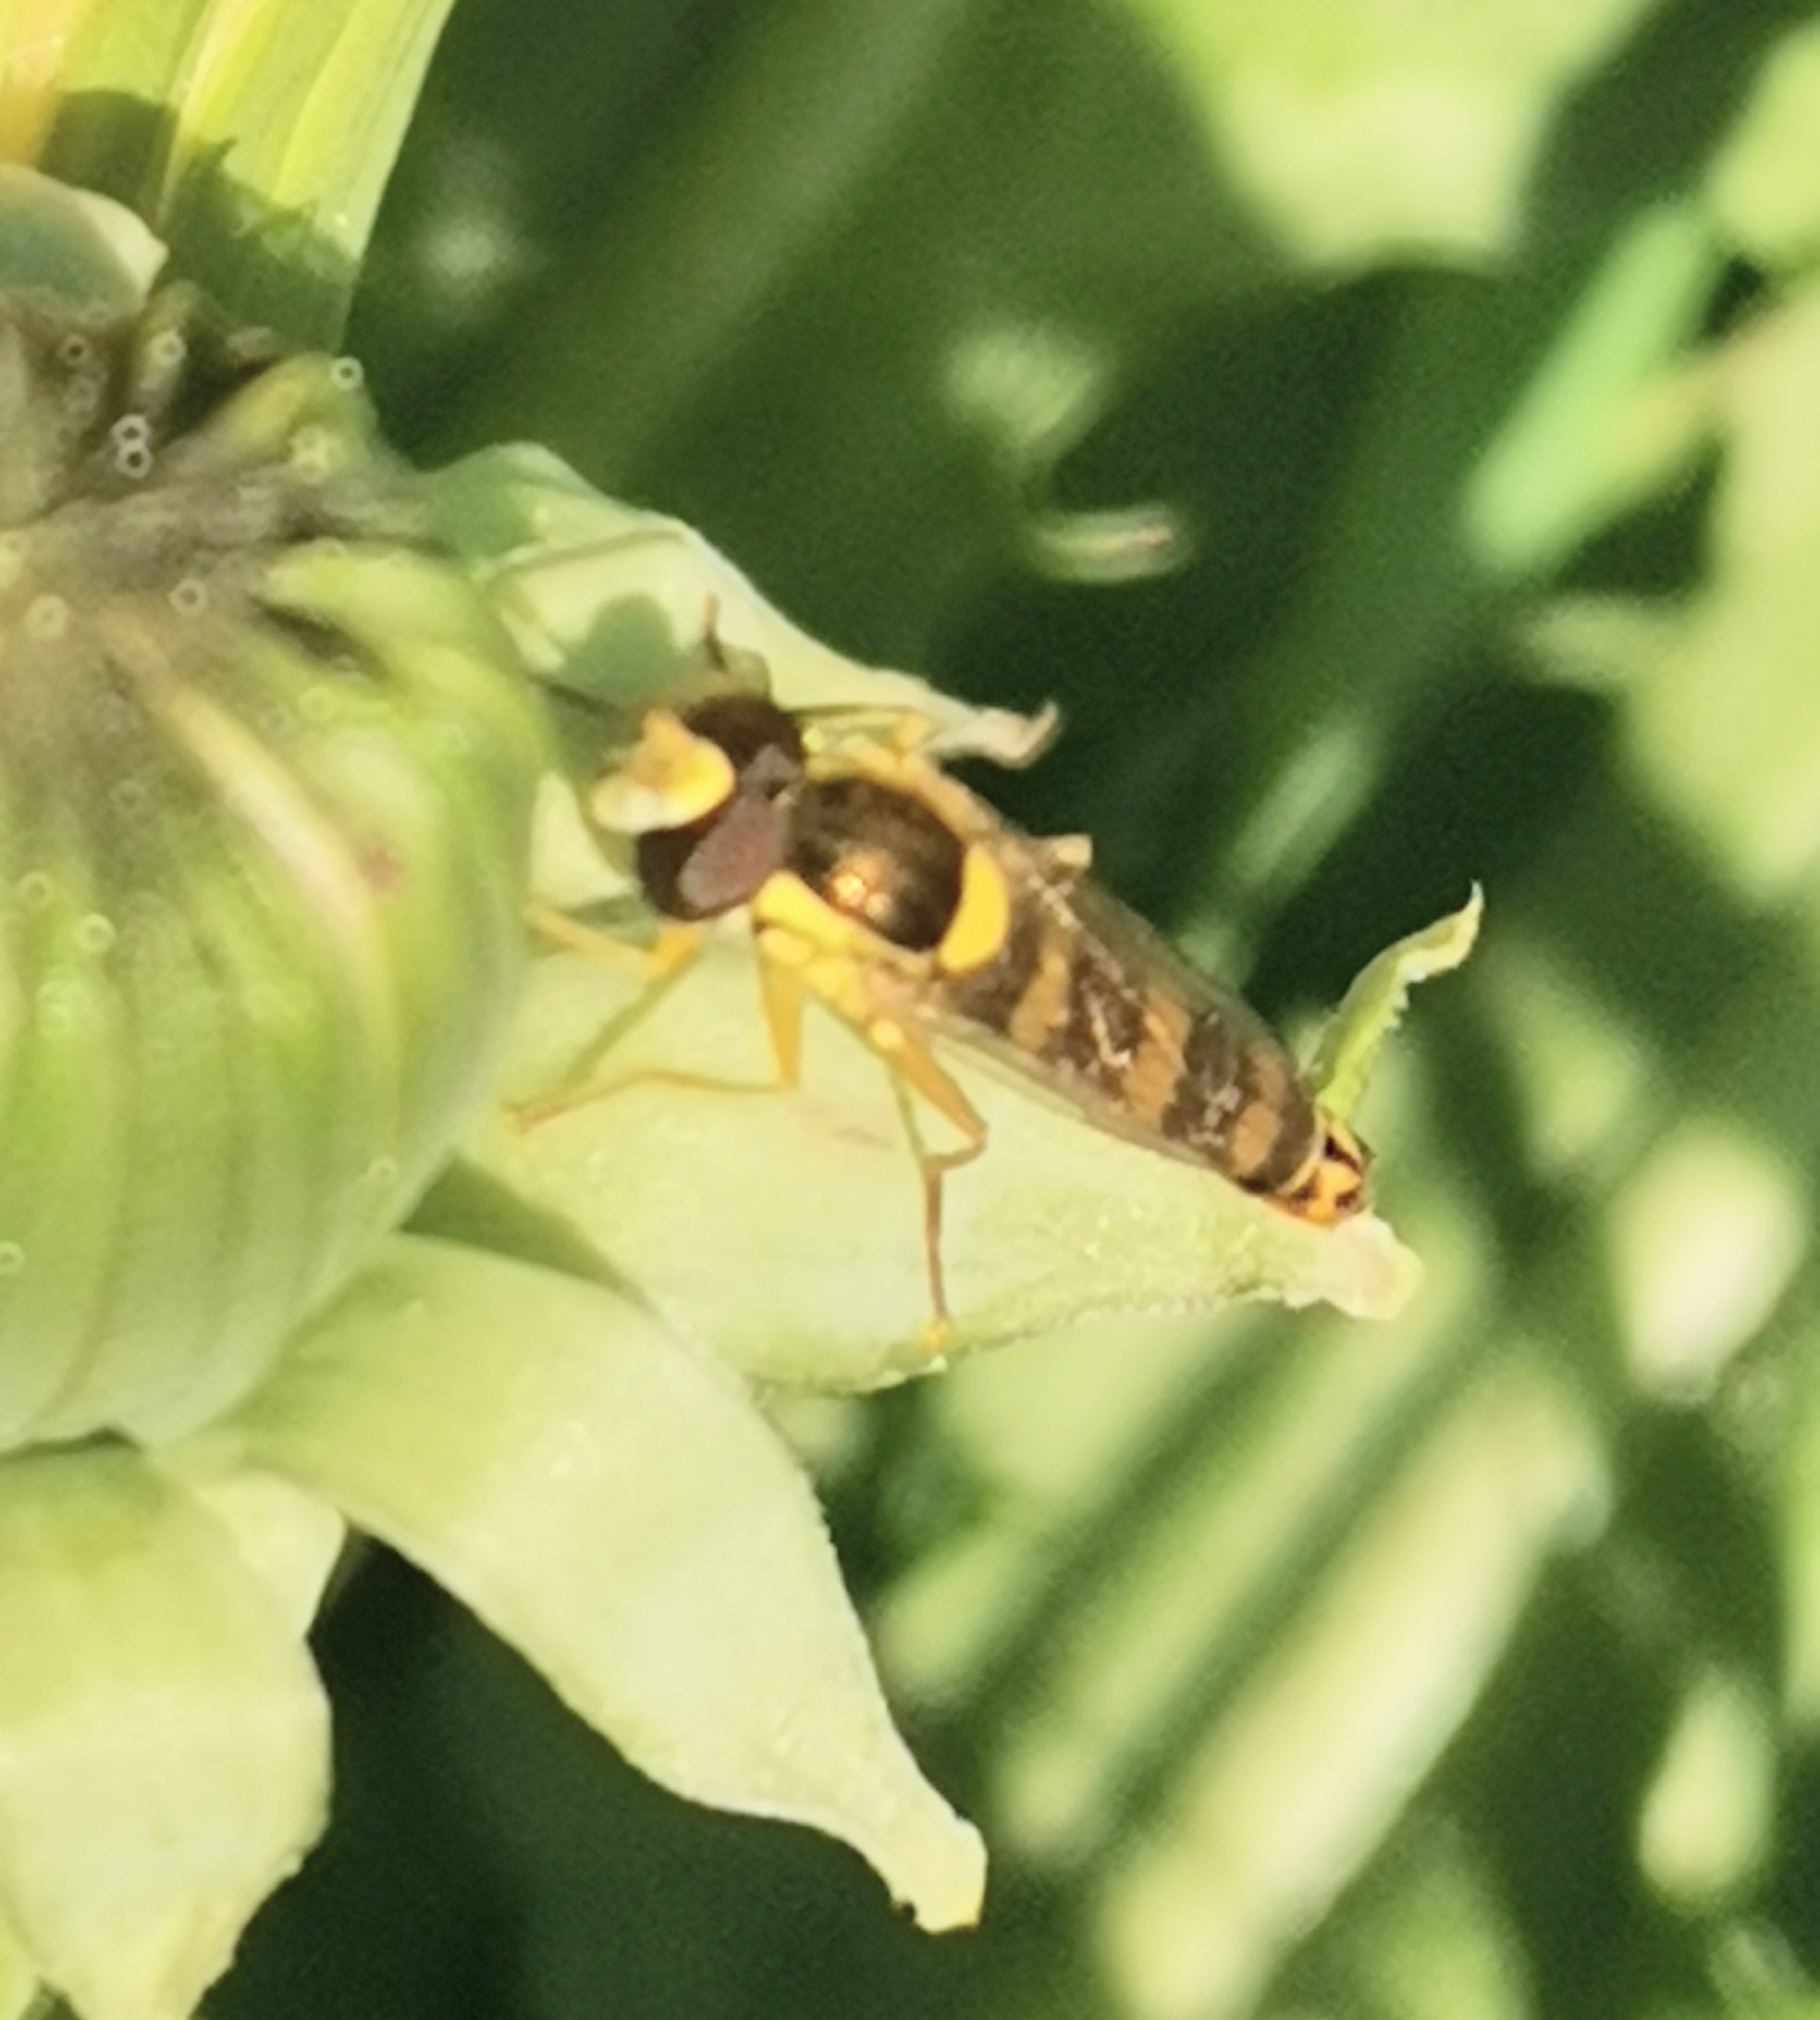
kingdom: Animalia
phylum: Arthropoda
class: Insecta
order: Diptera
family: Syrphidae
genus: Sphaerophoria
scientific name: Sphaerophoria scripta
